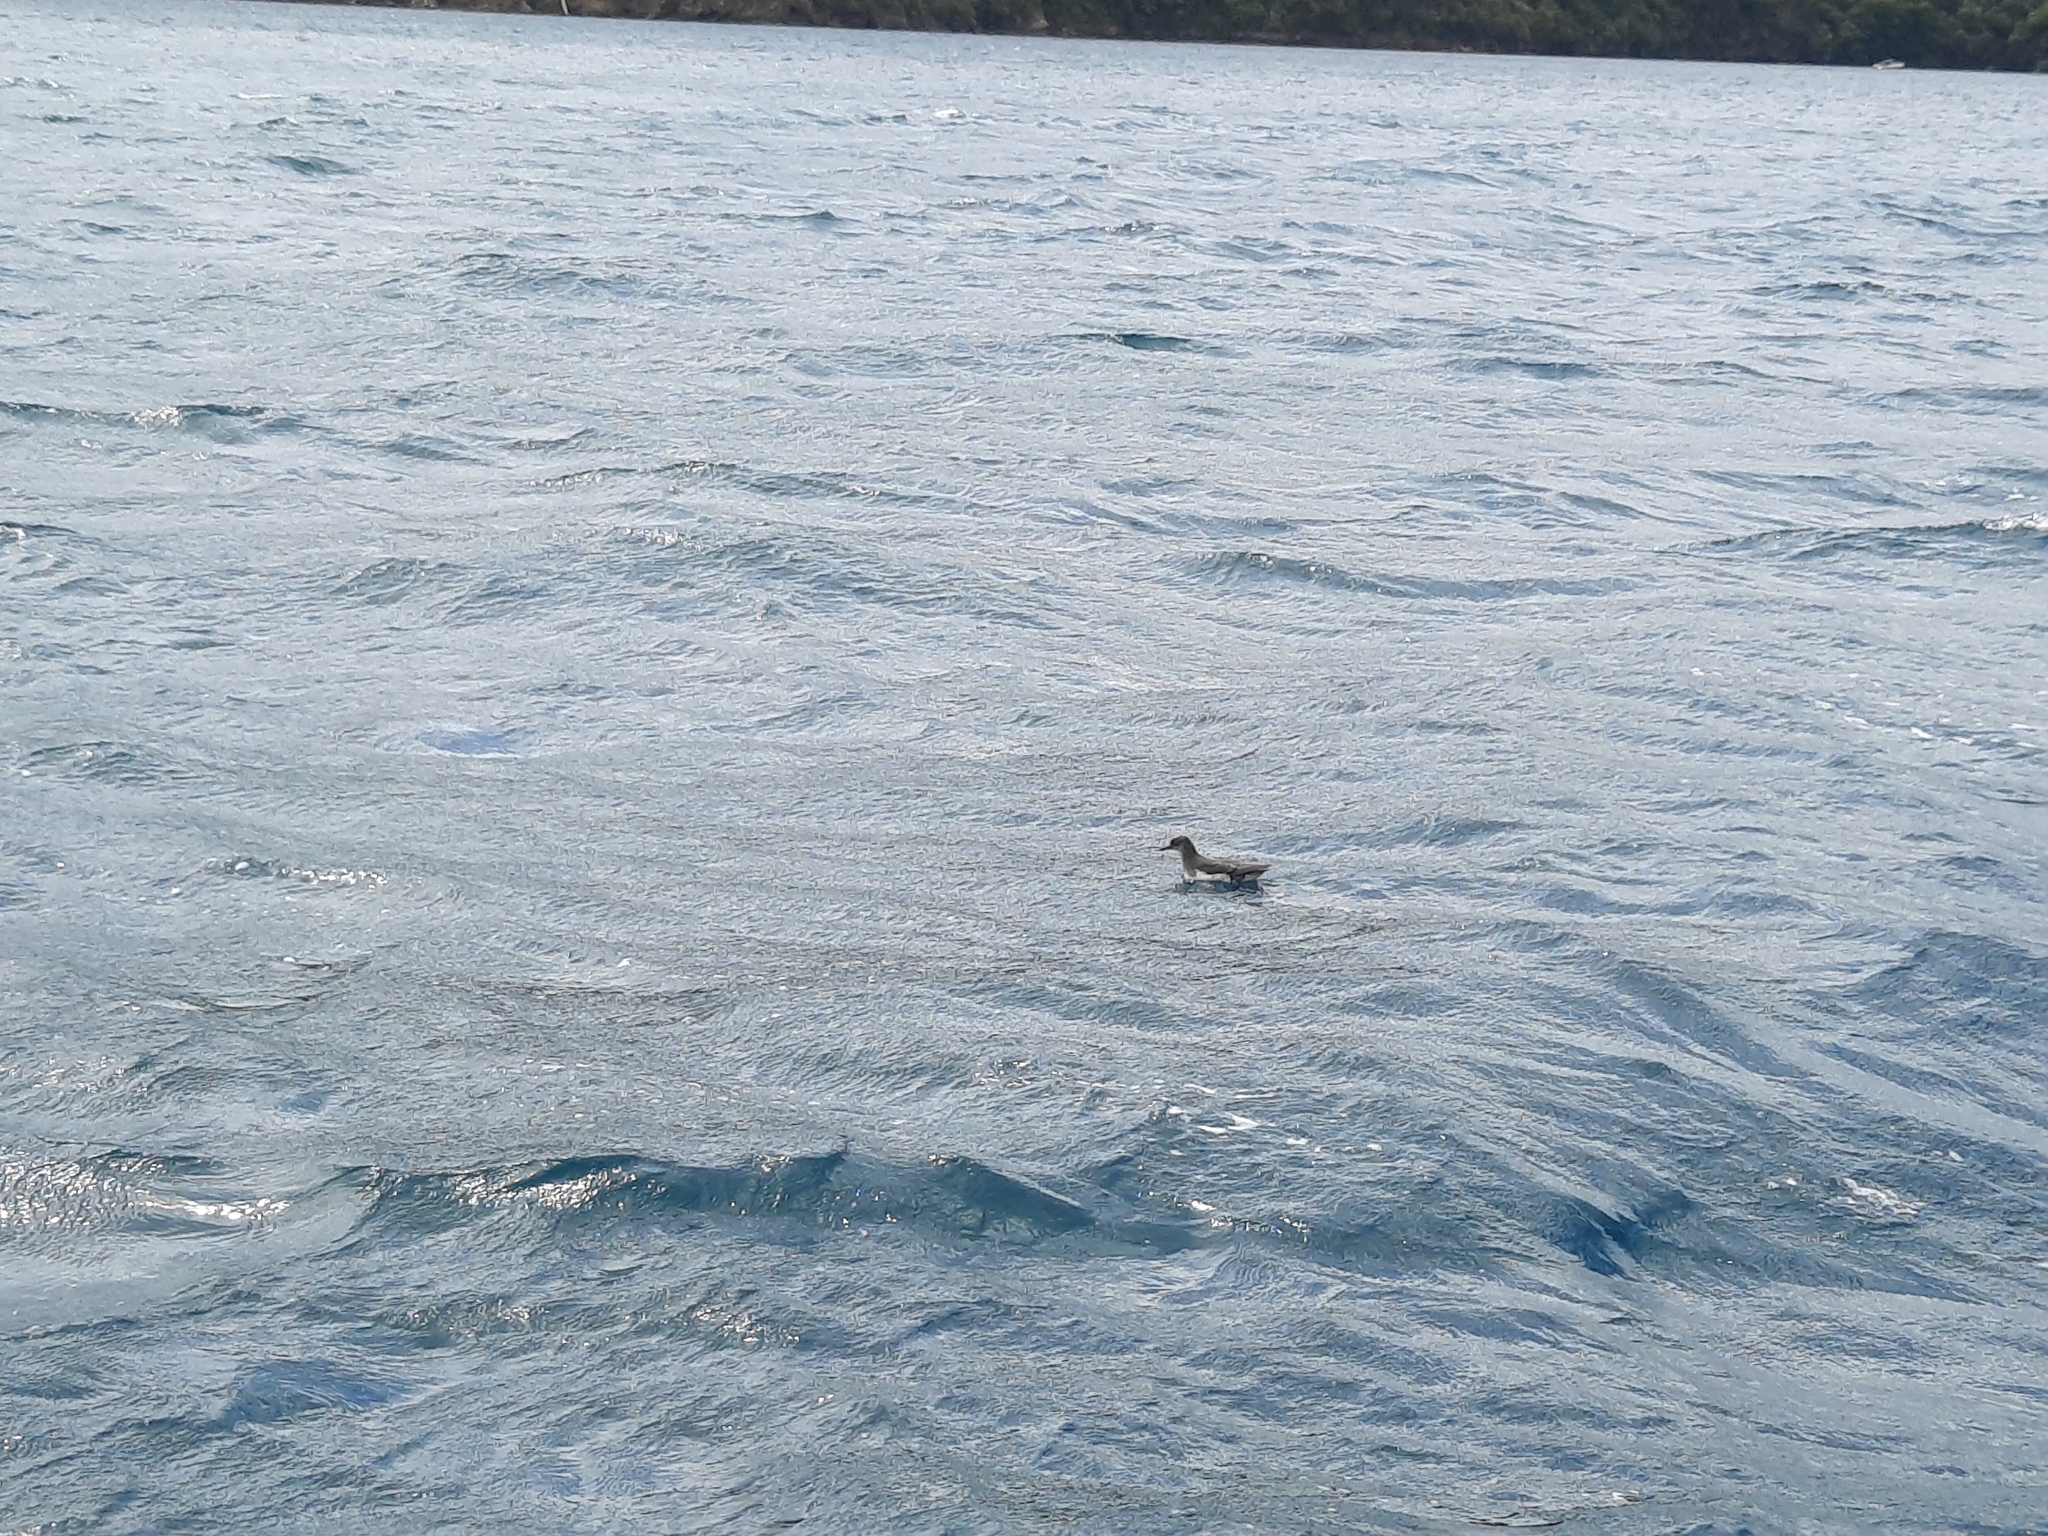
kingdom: Animalia
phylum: Chordata
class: Aves
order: Procellariiformes
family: Procellariidae
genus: Puffinus
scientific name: Puffinus gavia
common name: Fluttering shearwater
